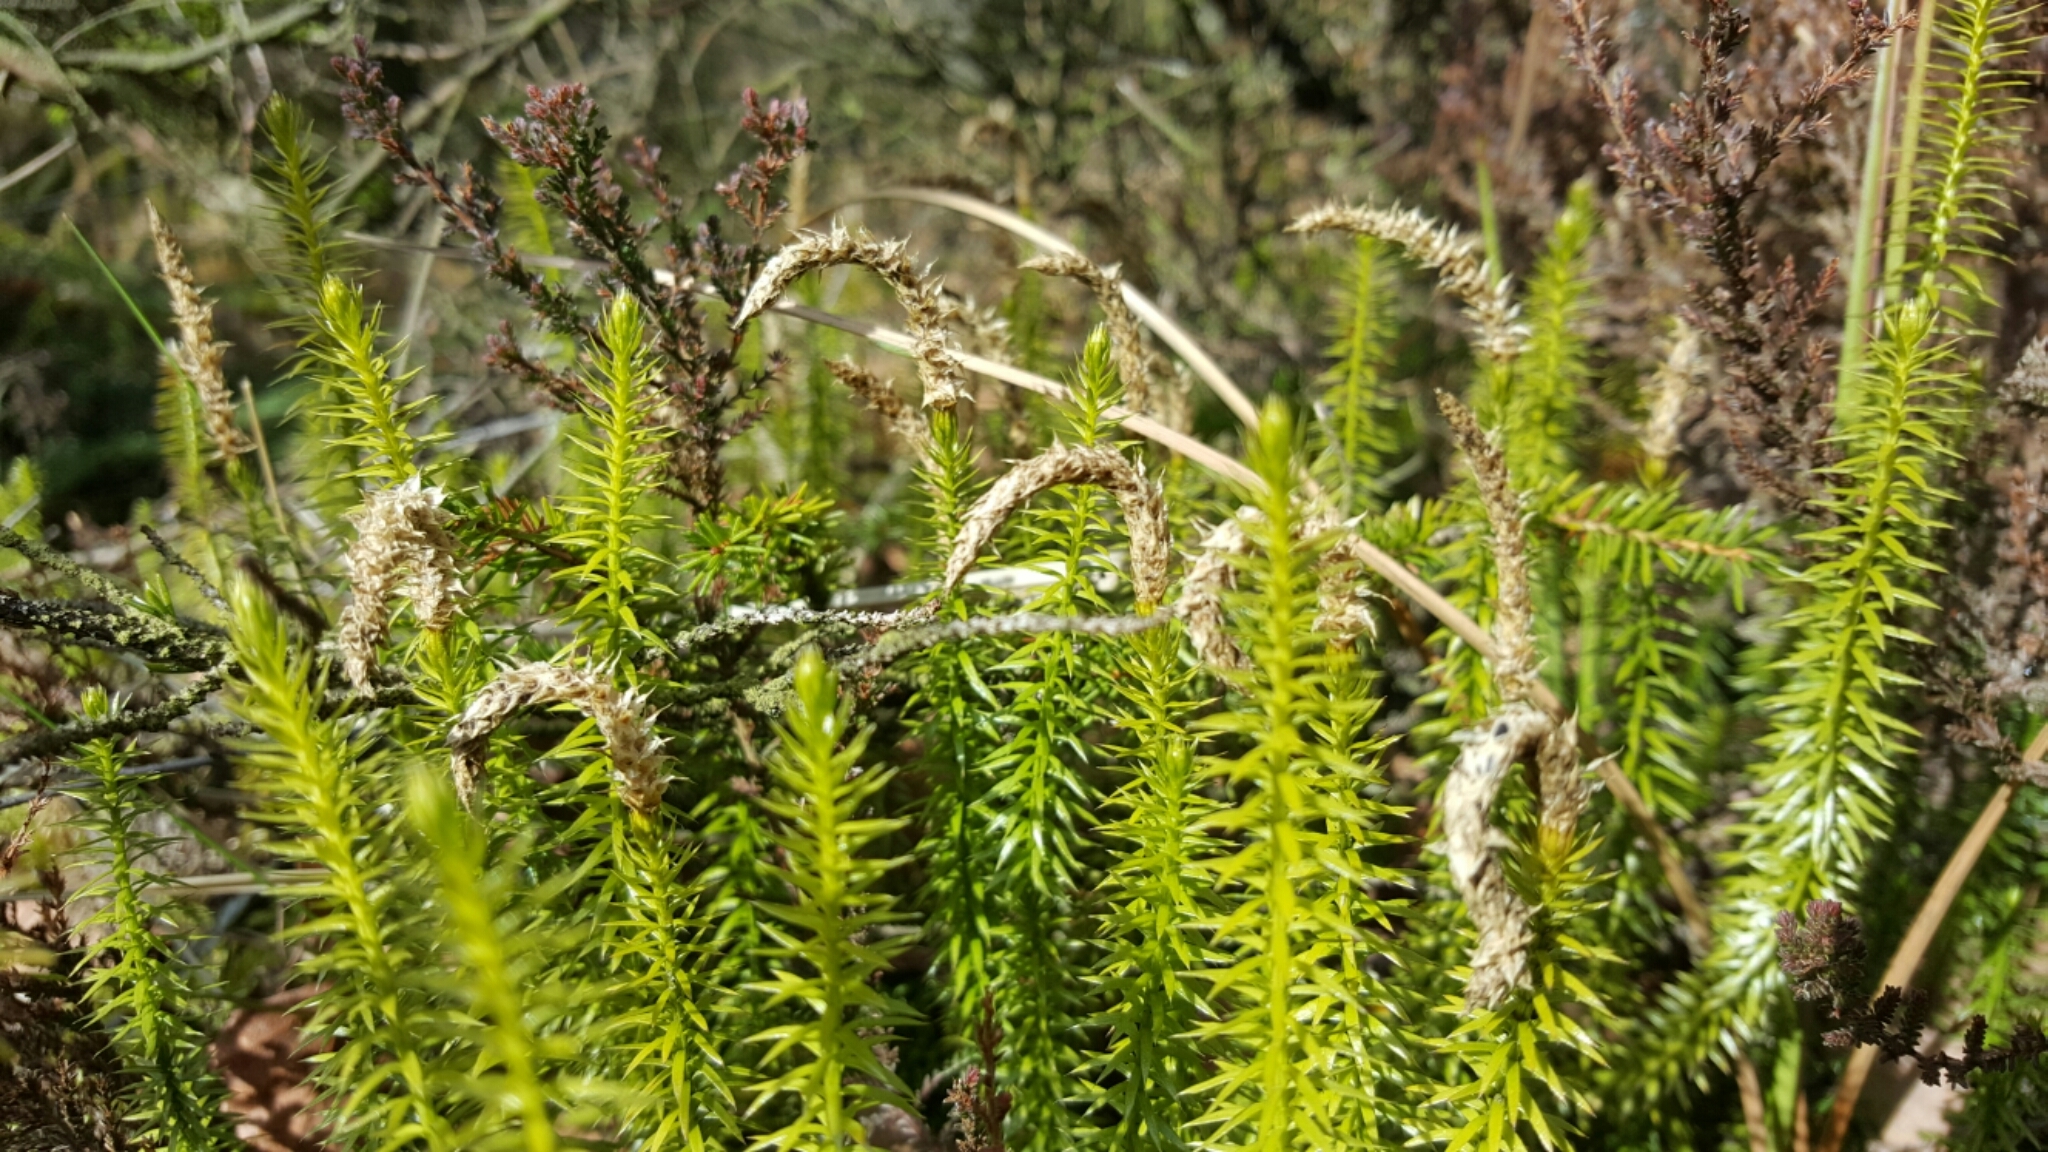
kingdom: Plantae
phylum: Tracheophyta
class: Lycopodiopsida
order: Lycopodiales
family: Lycopodiaceae
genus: Spinulum
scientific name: Spinulum annotinum
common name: Interrupted club-moss
